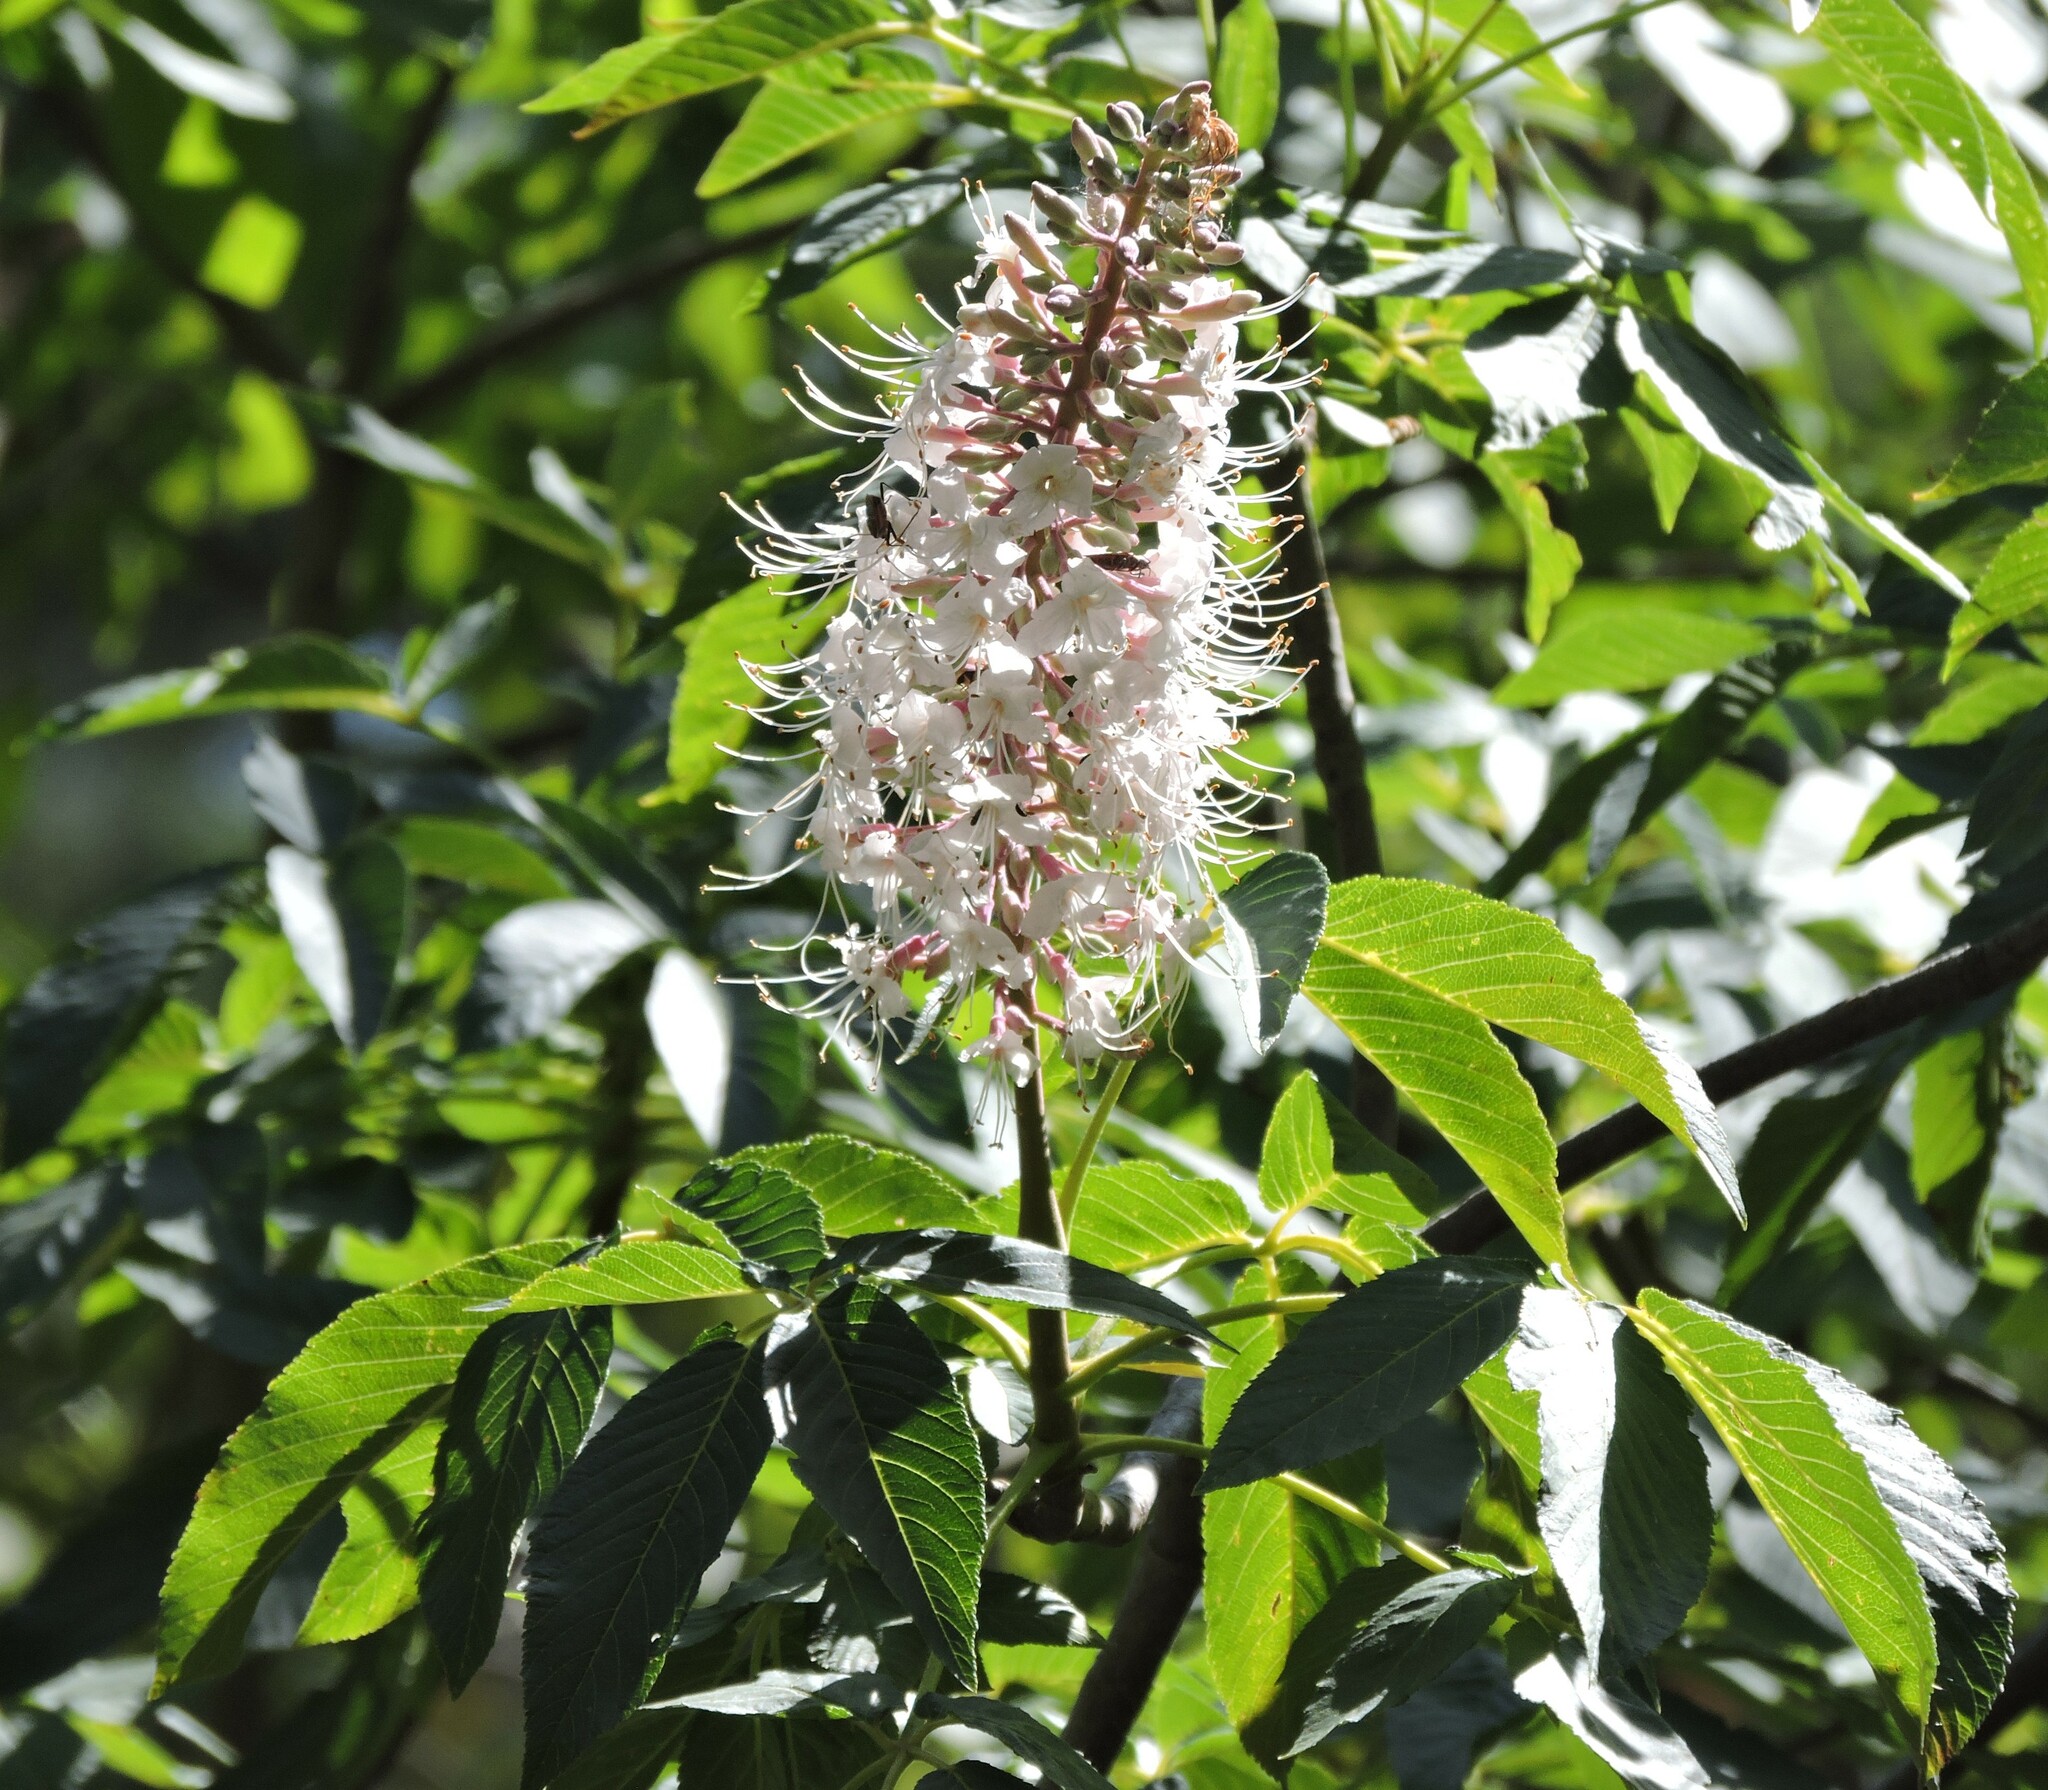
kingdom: Plantae
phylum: Tracheophyta
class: Magnoliopsida
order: Sapindales
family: Sapindaceae
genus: Aesculus
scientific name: Aesculus californica
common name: California buckeye
